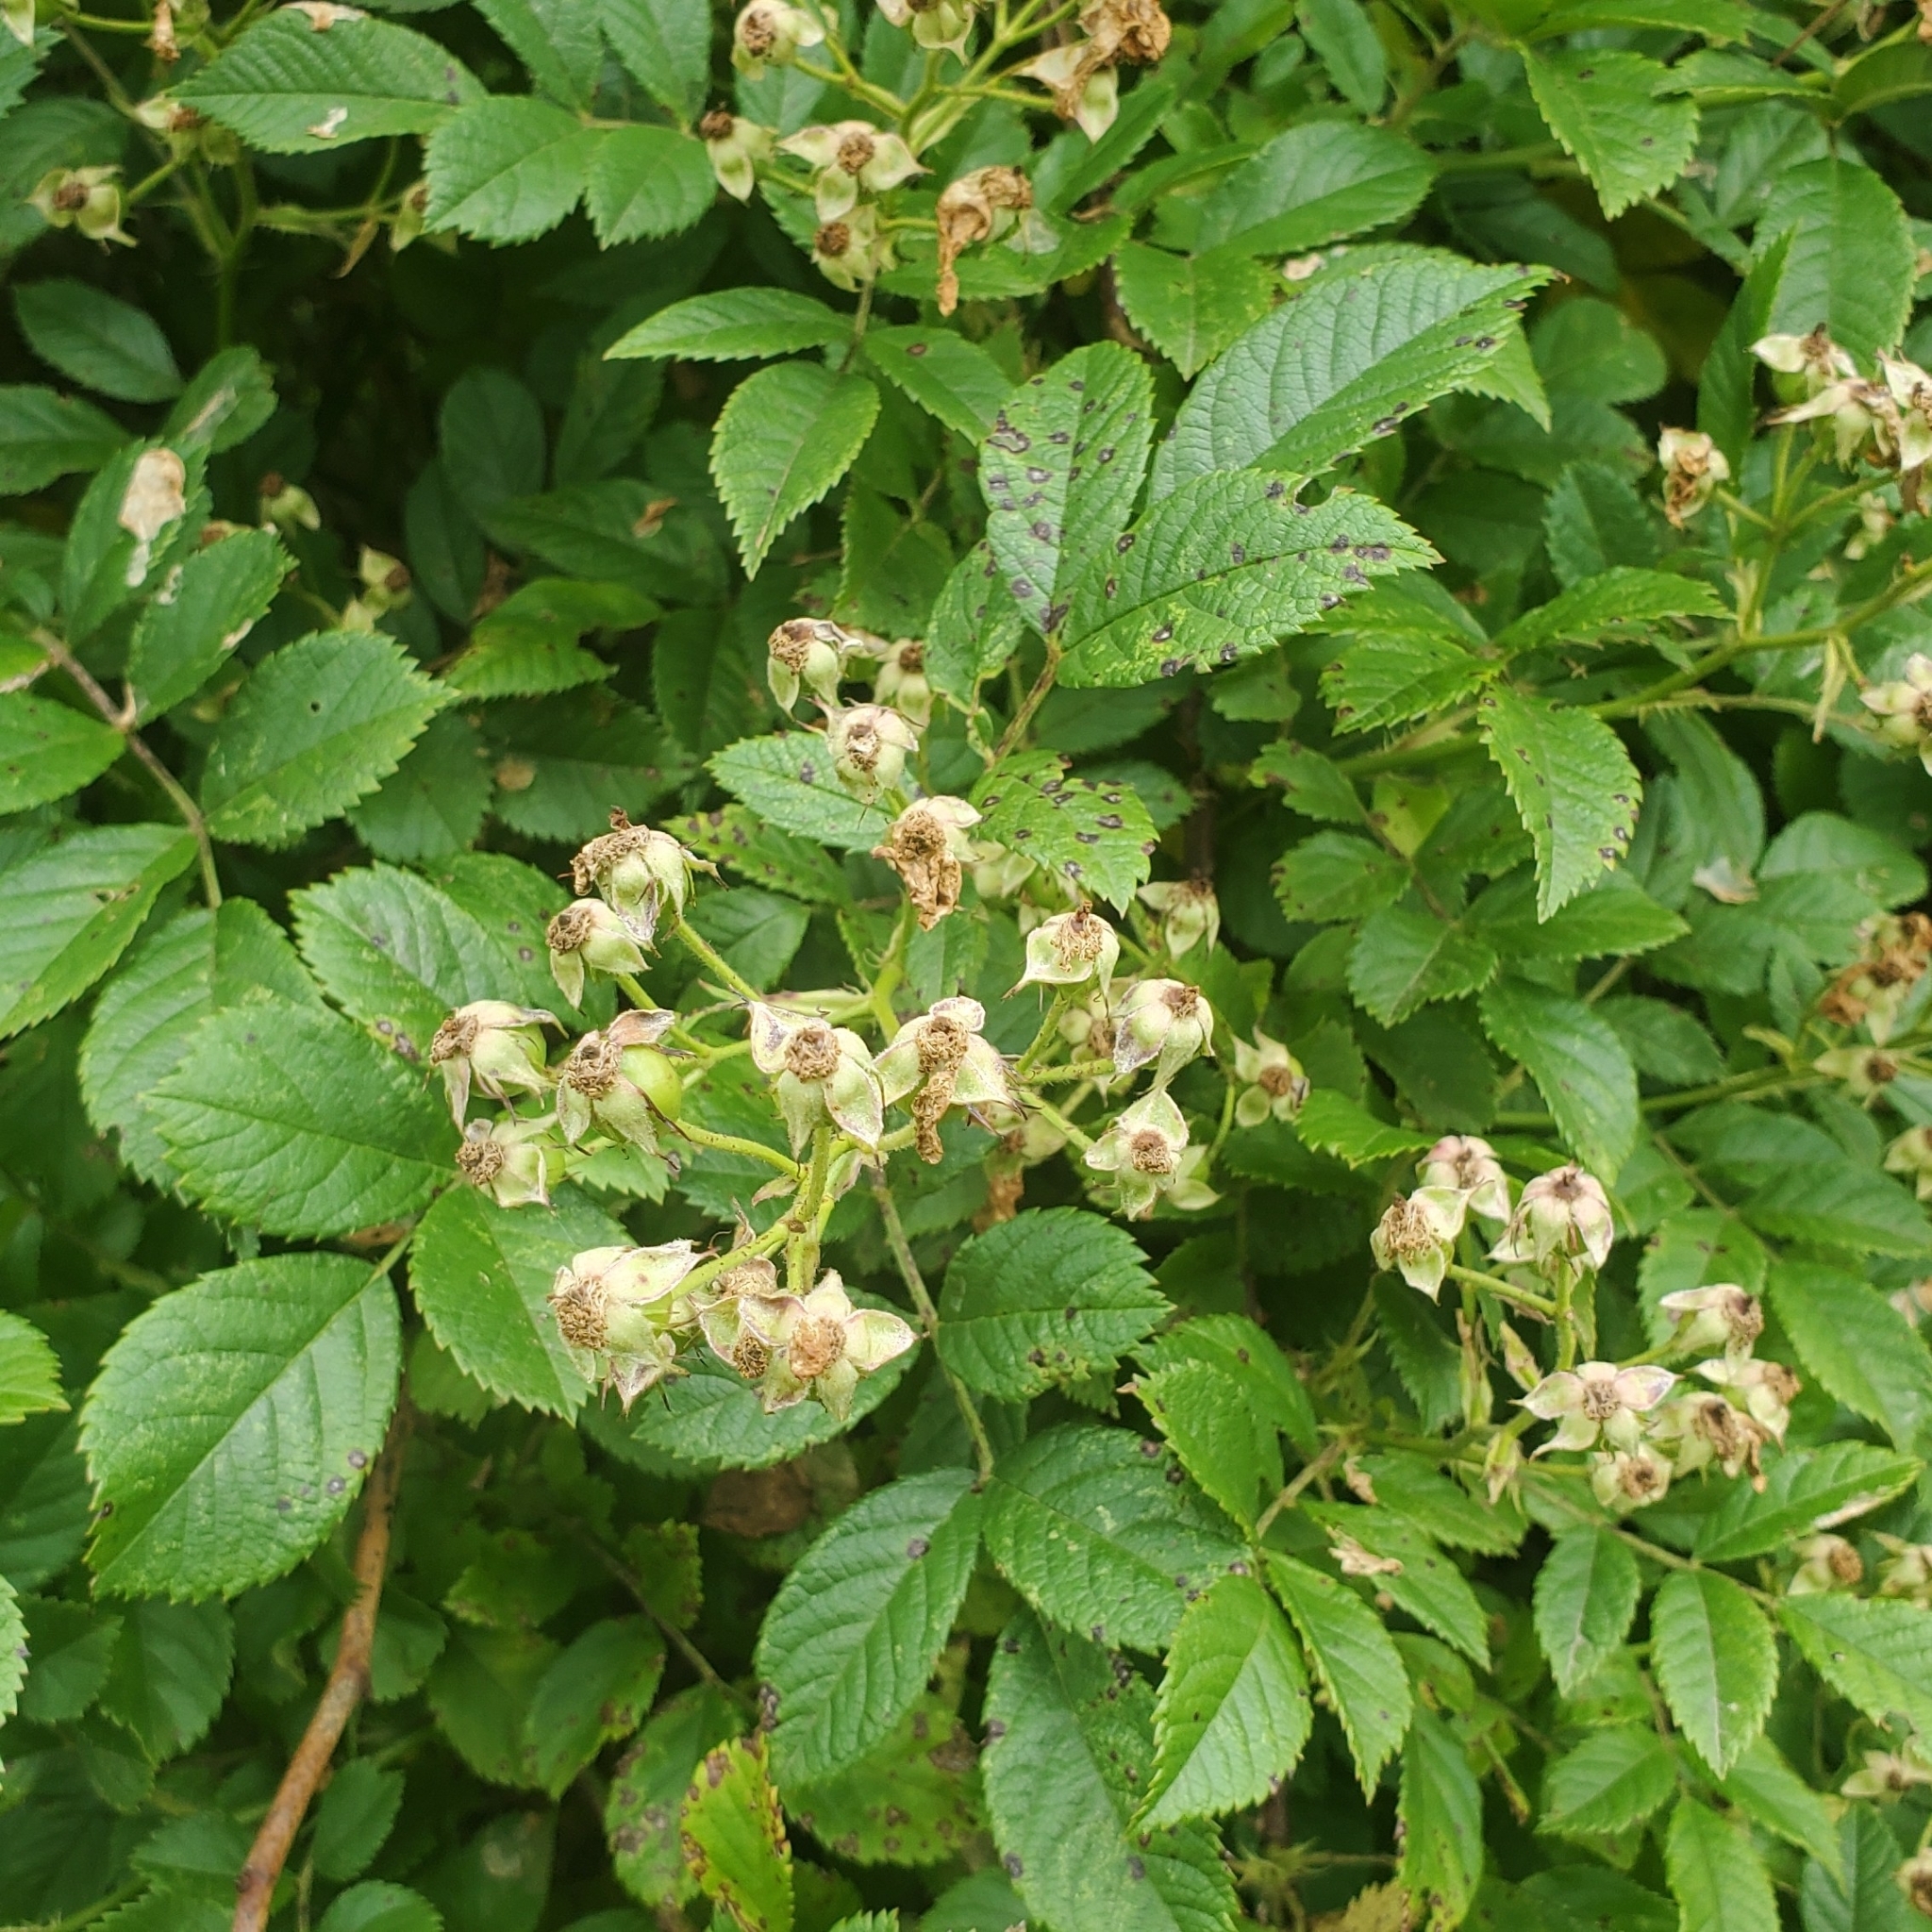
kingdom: Plantae
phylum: Tracheophyta
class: Magnoliopsida
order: Rosales
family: Rosaceae
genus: Rosa
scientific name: Rosa multiflora
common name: Multiflora rose
